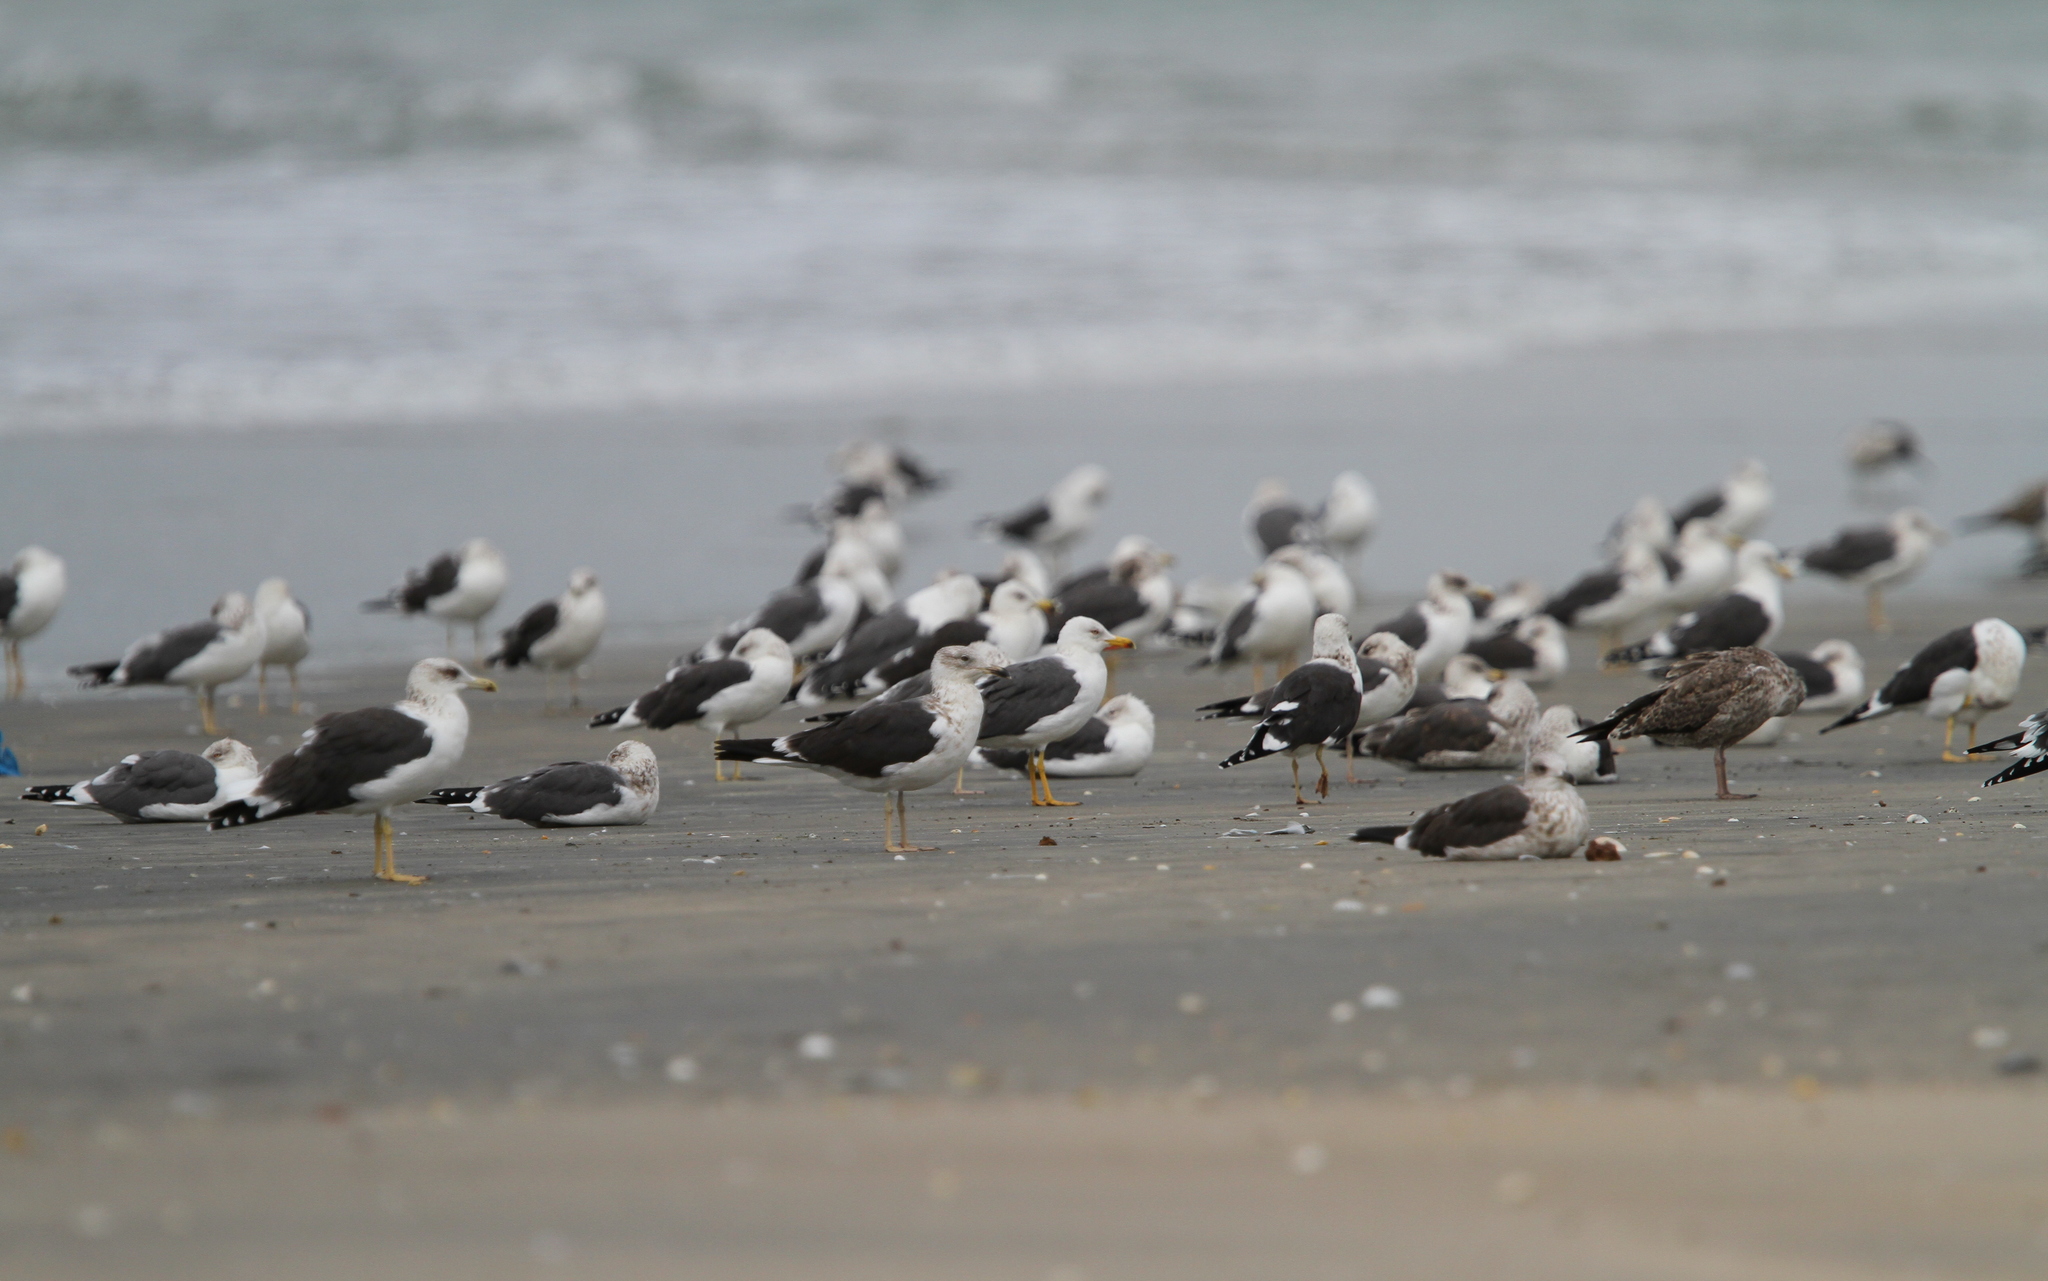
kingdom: Animalia
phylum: Chordata
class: Aves
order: Charadriiformes
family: Laridae
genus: Larus
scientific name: Larus fuscus
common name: Lesser black-backed gull
